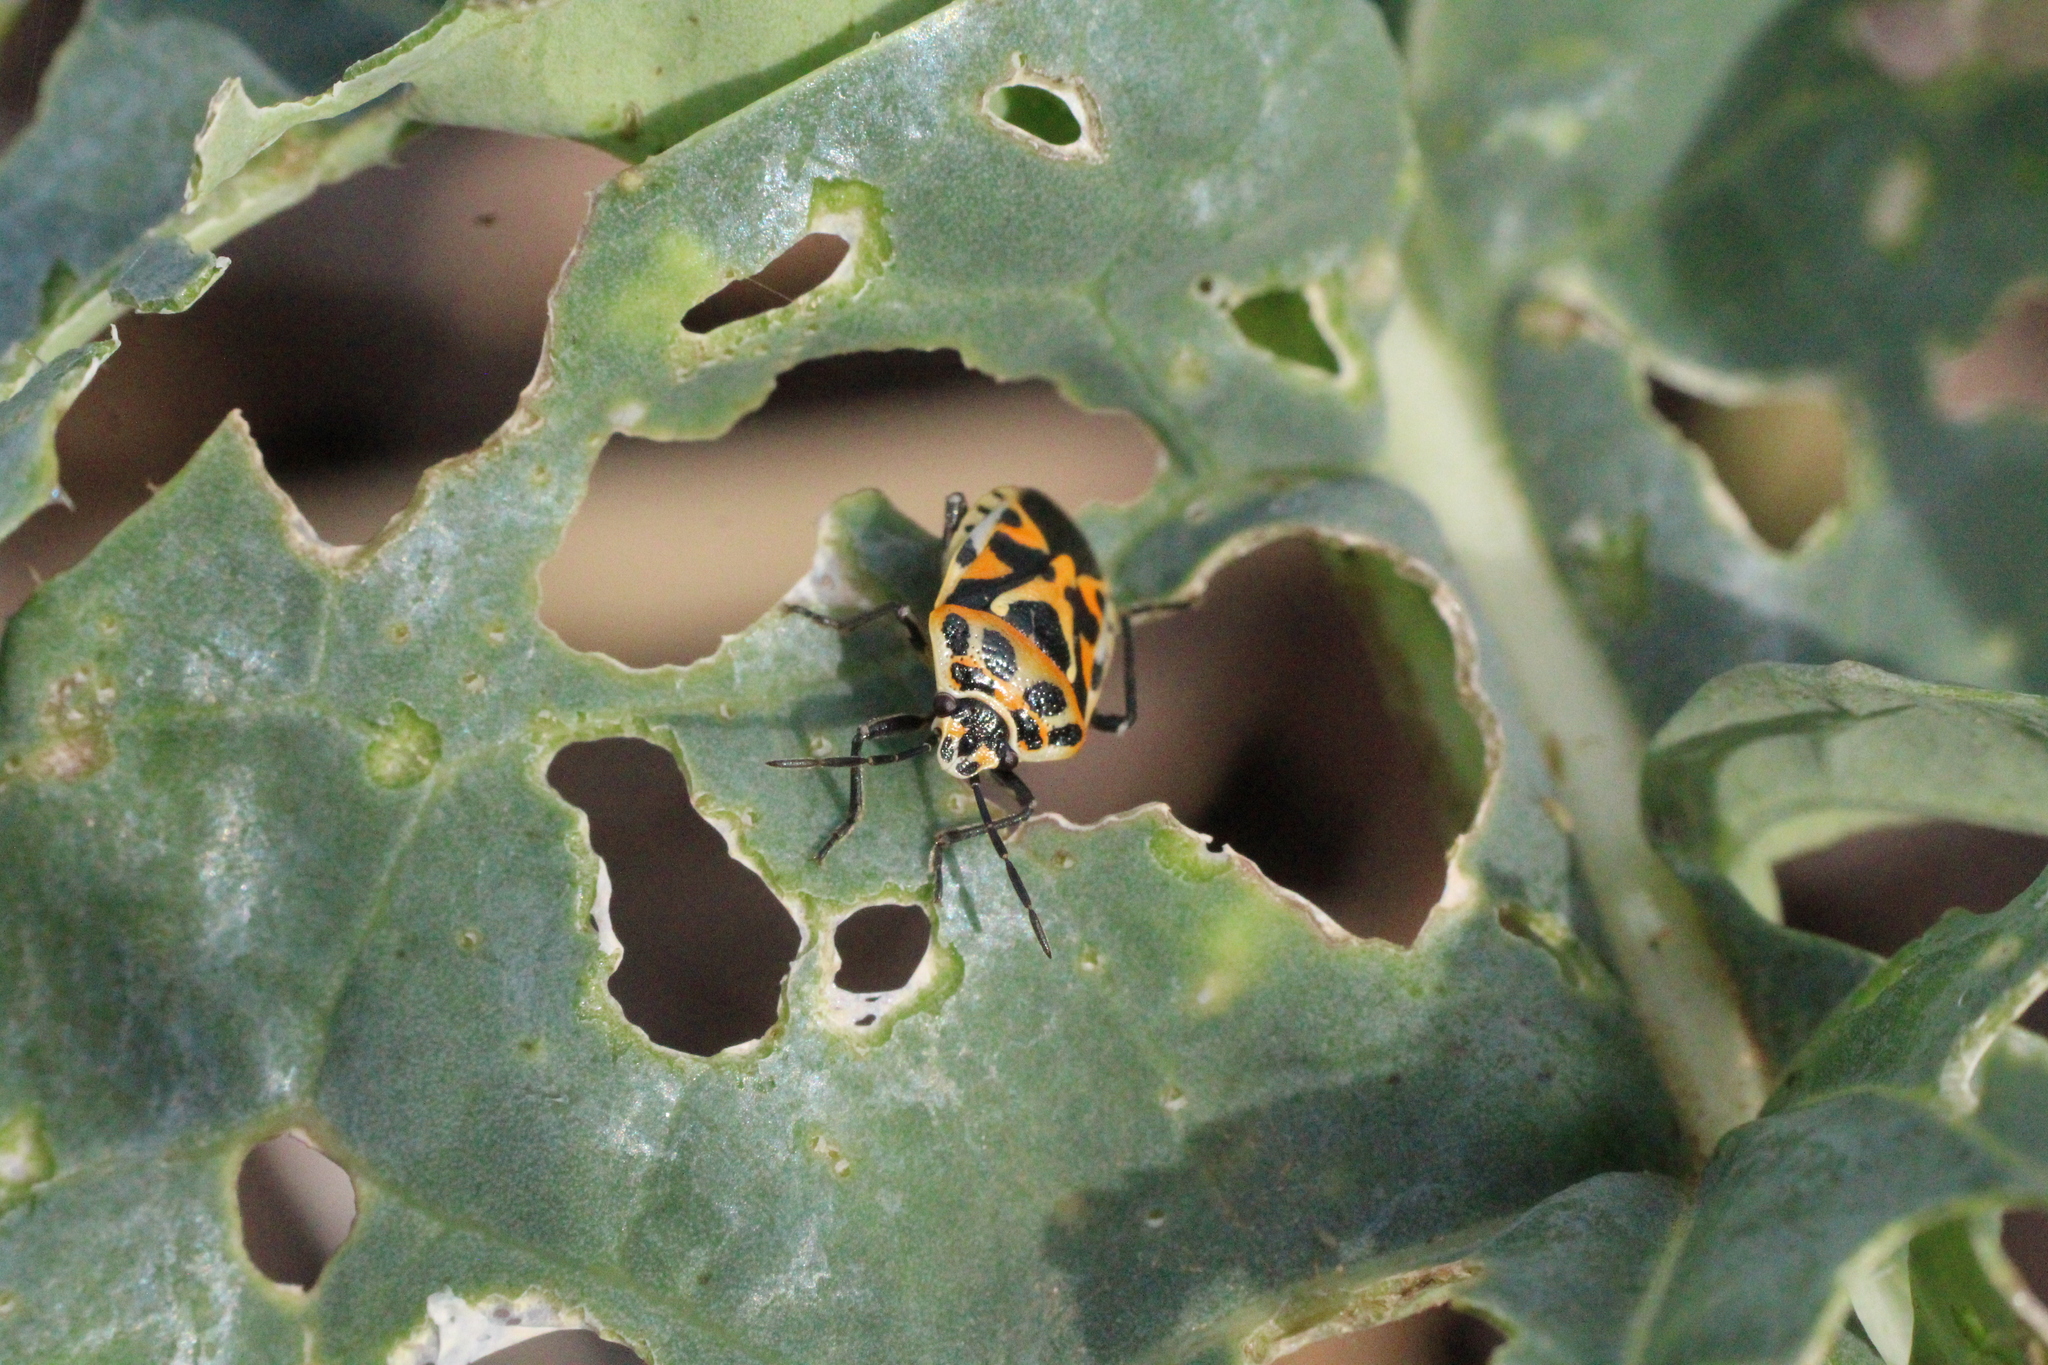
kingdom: Animalia
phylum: Arthropoda
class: Insecta
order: Hemiptera
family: Pentatomidae
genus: Eurydema
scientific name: Eurydema ornata
